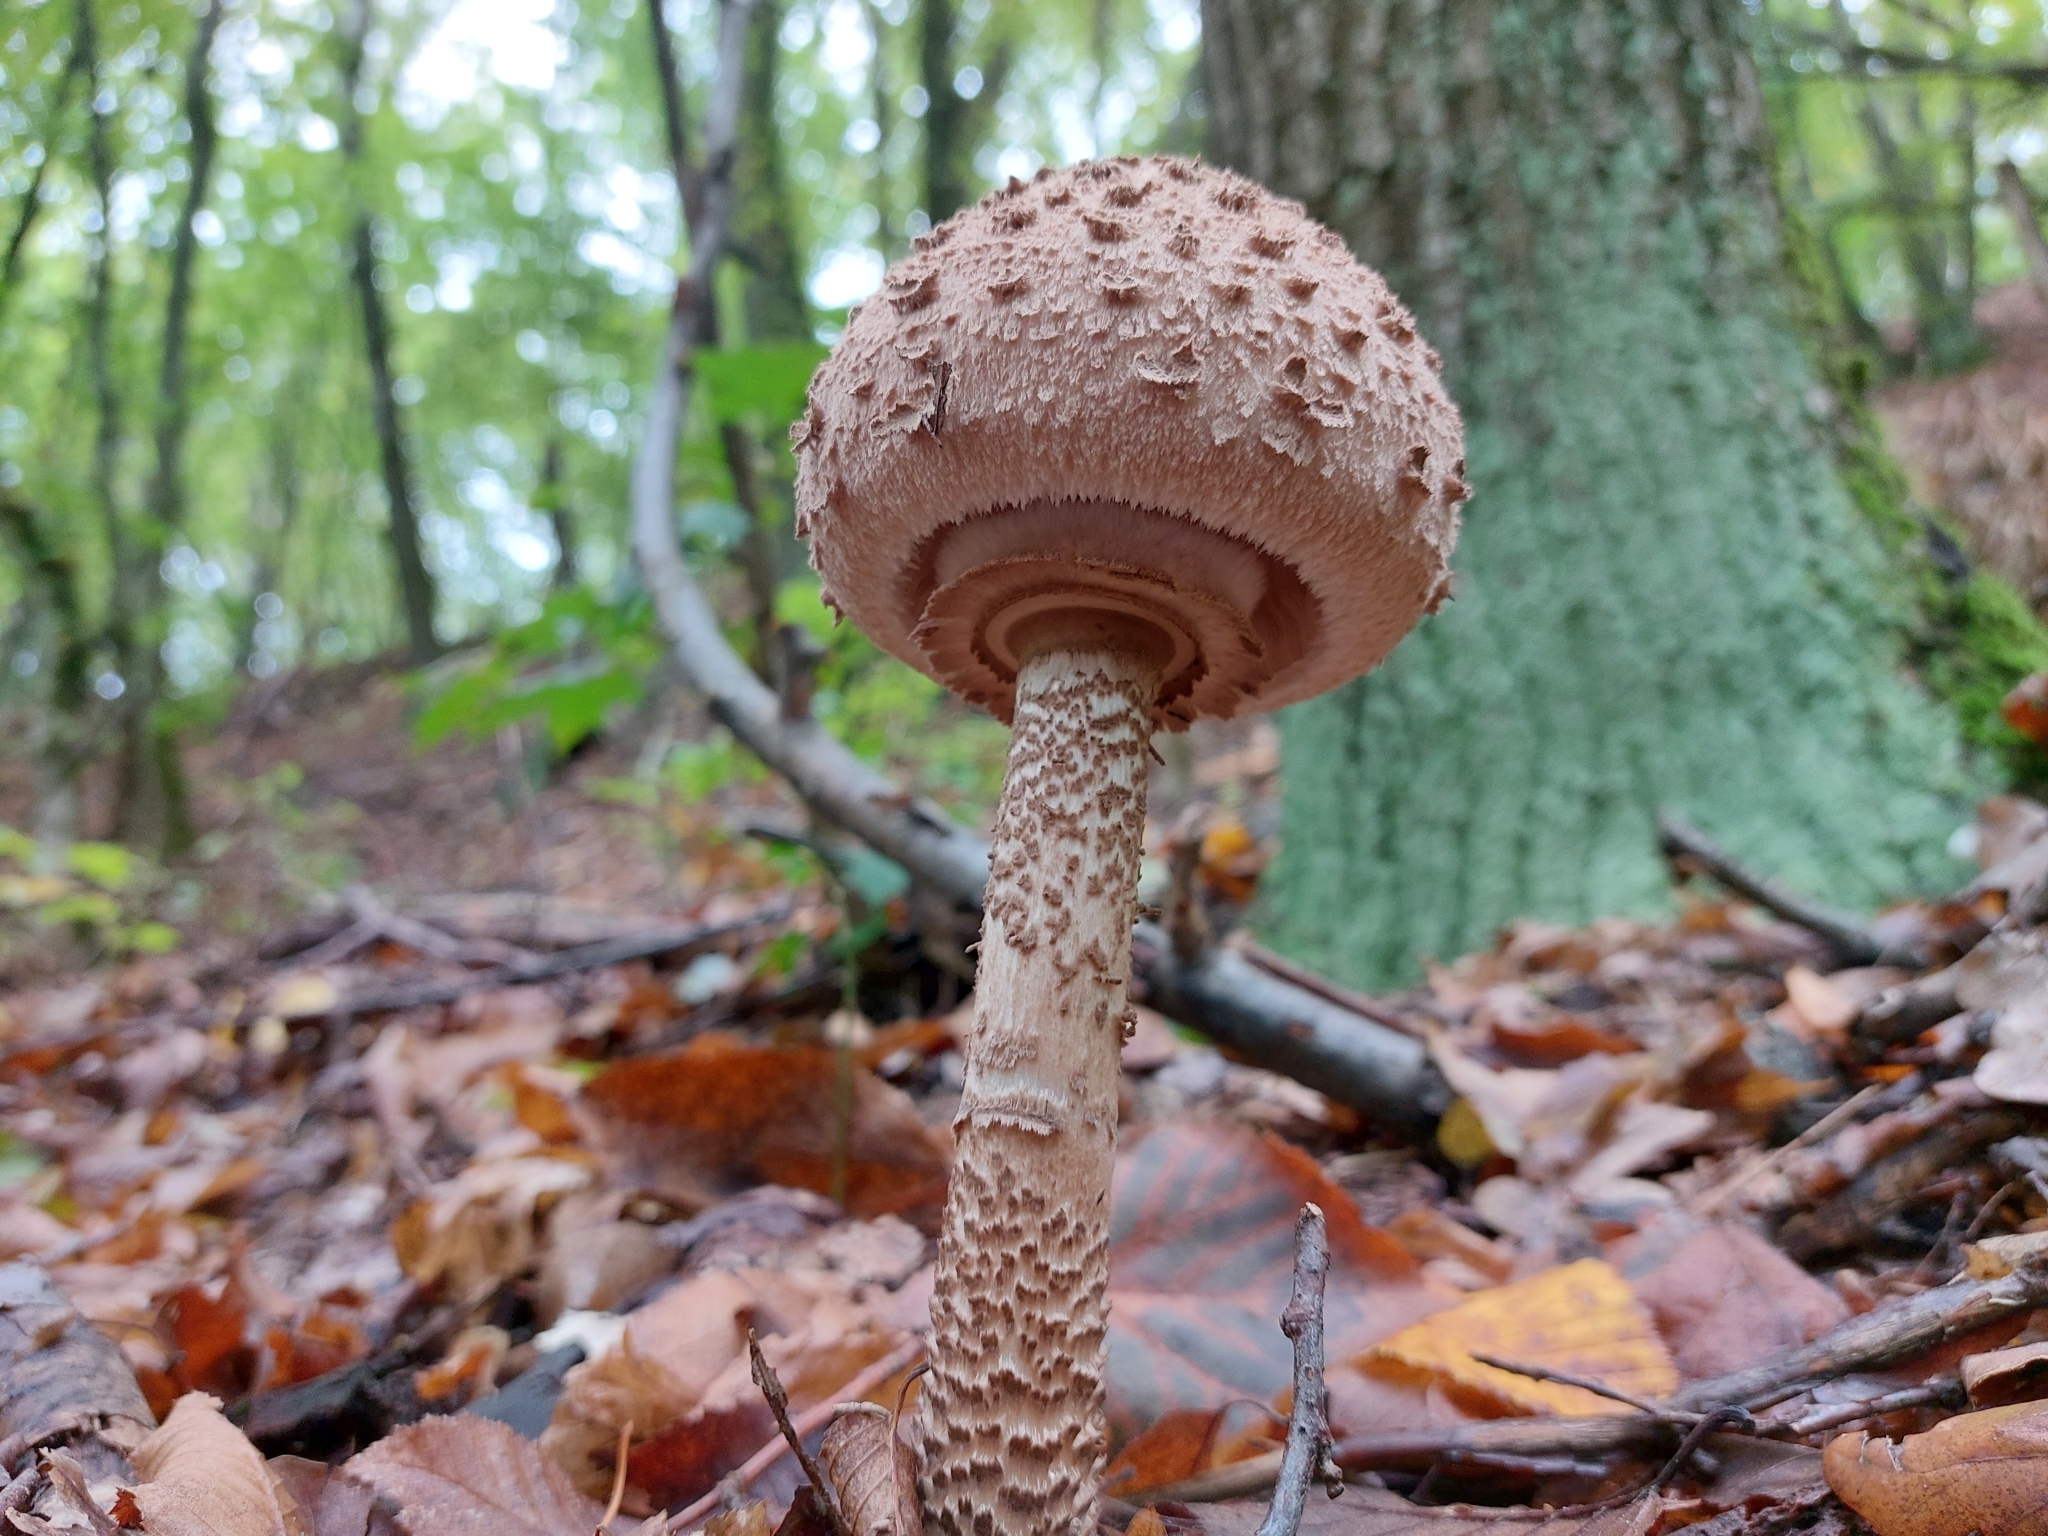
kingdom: Fungi
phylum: Basidiomycota
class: Agaricomycetes
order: Agaricales
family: Agaricaceae
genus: Macrolepiota
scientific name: Macrolepiota procera
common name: Parasol
